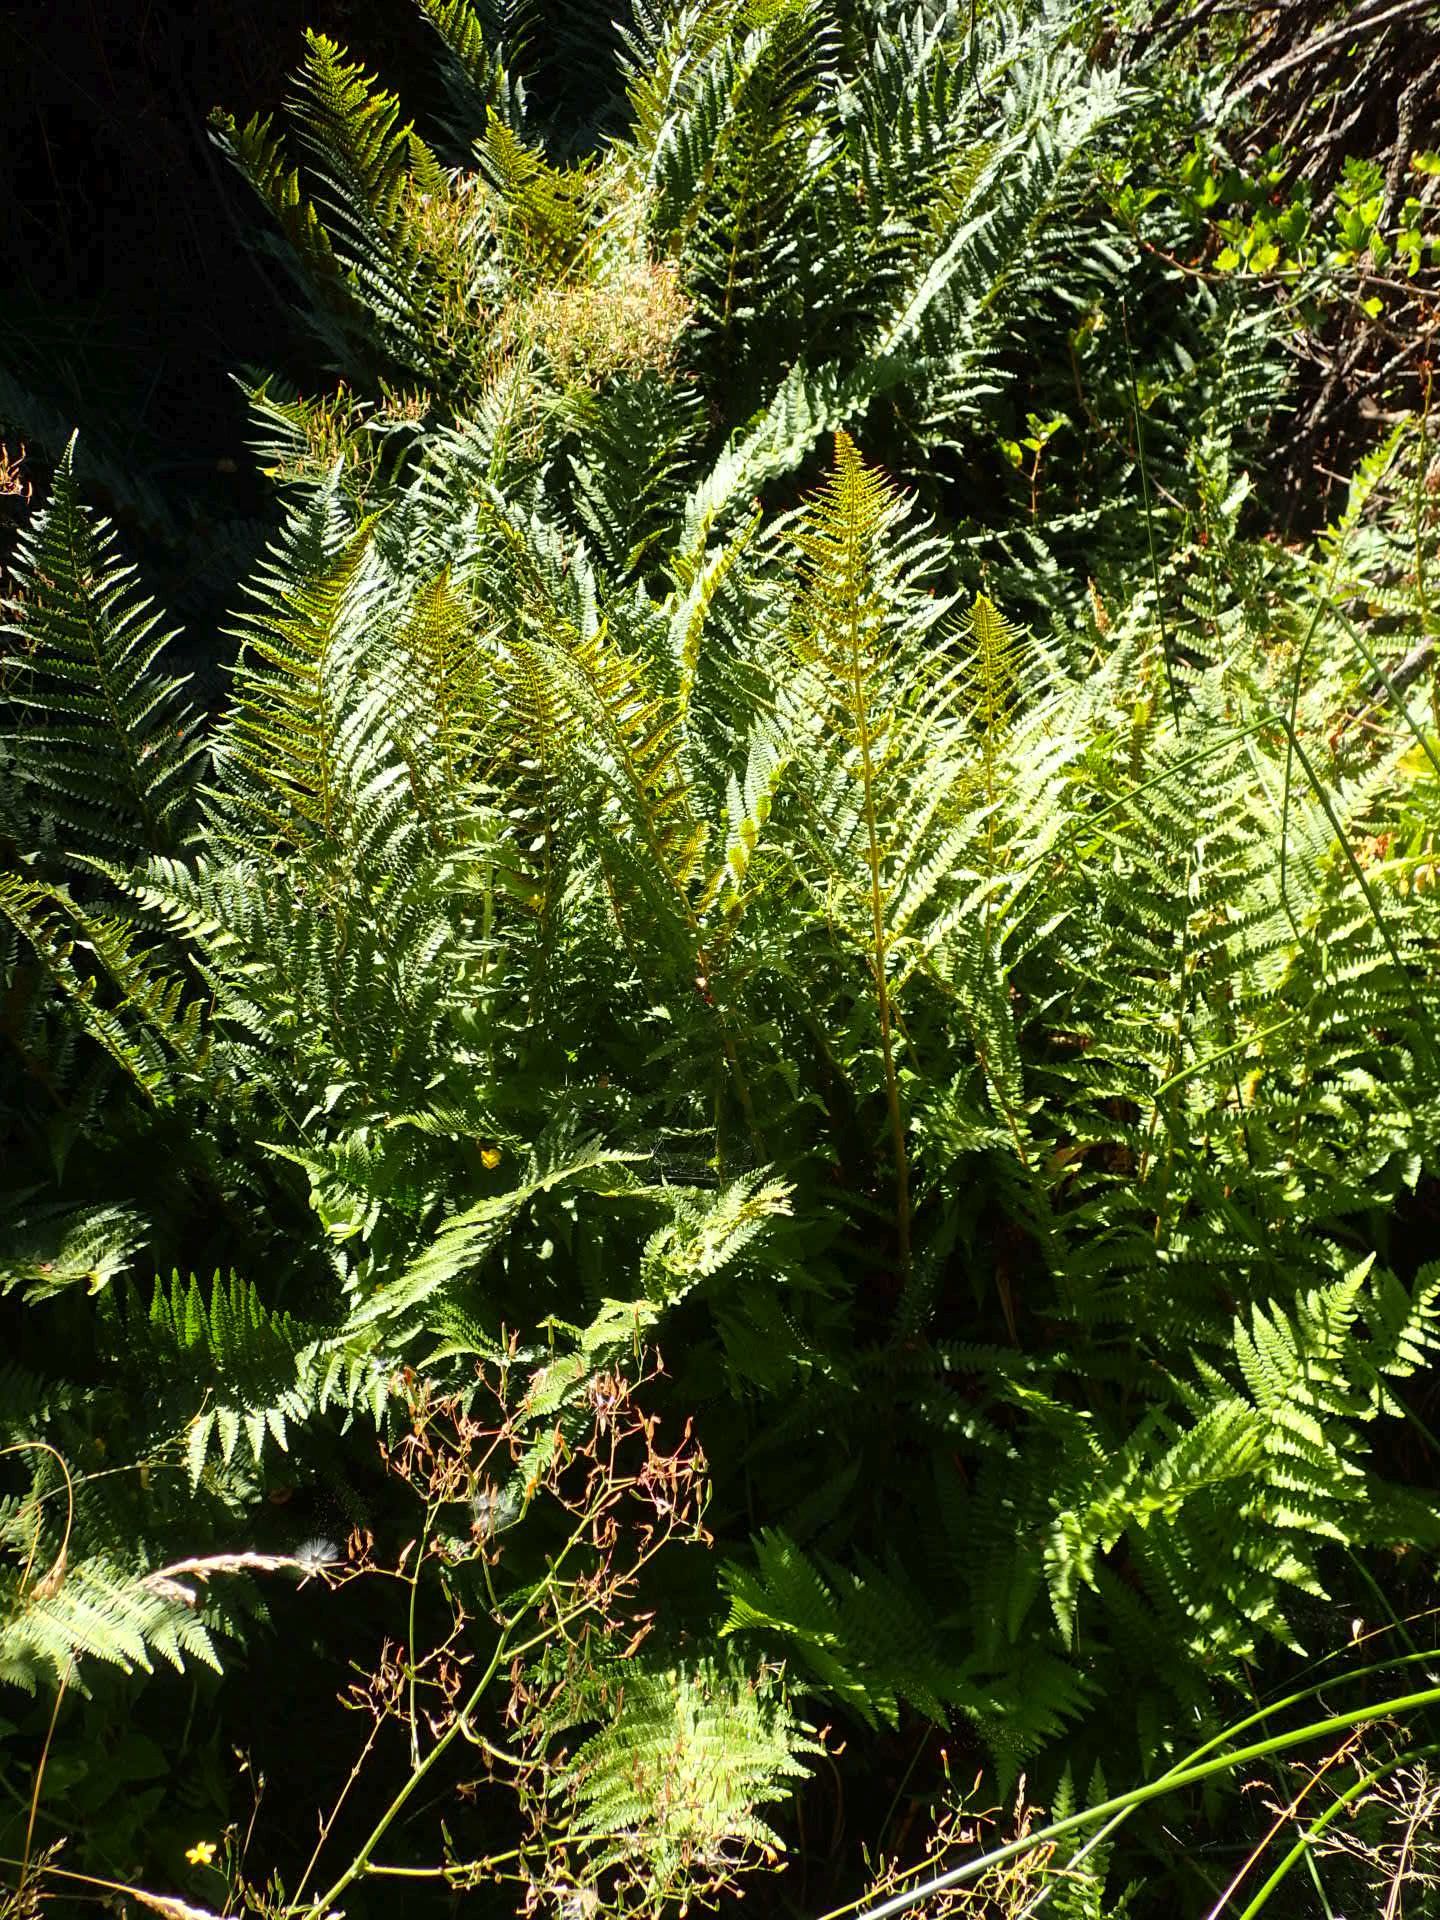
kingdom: Plantae
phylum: Tracheophyta
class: Polypodiopsida
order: Polypodiales
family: Dryopteridaceae
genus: Dryopteris
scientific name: Dryopteris filix-mas
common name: Male fern
